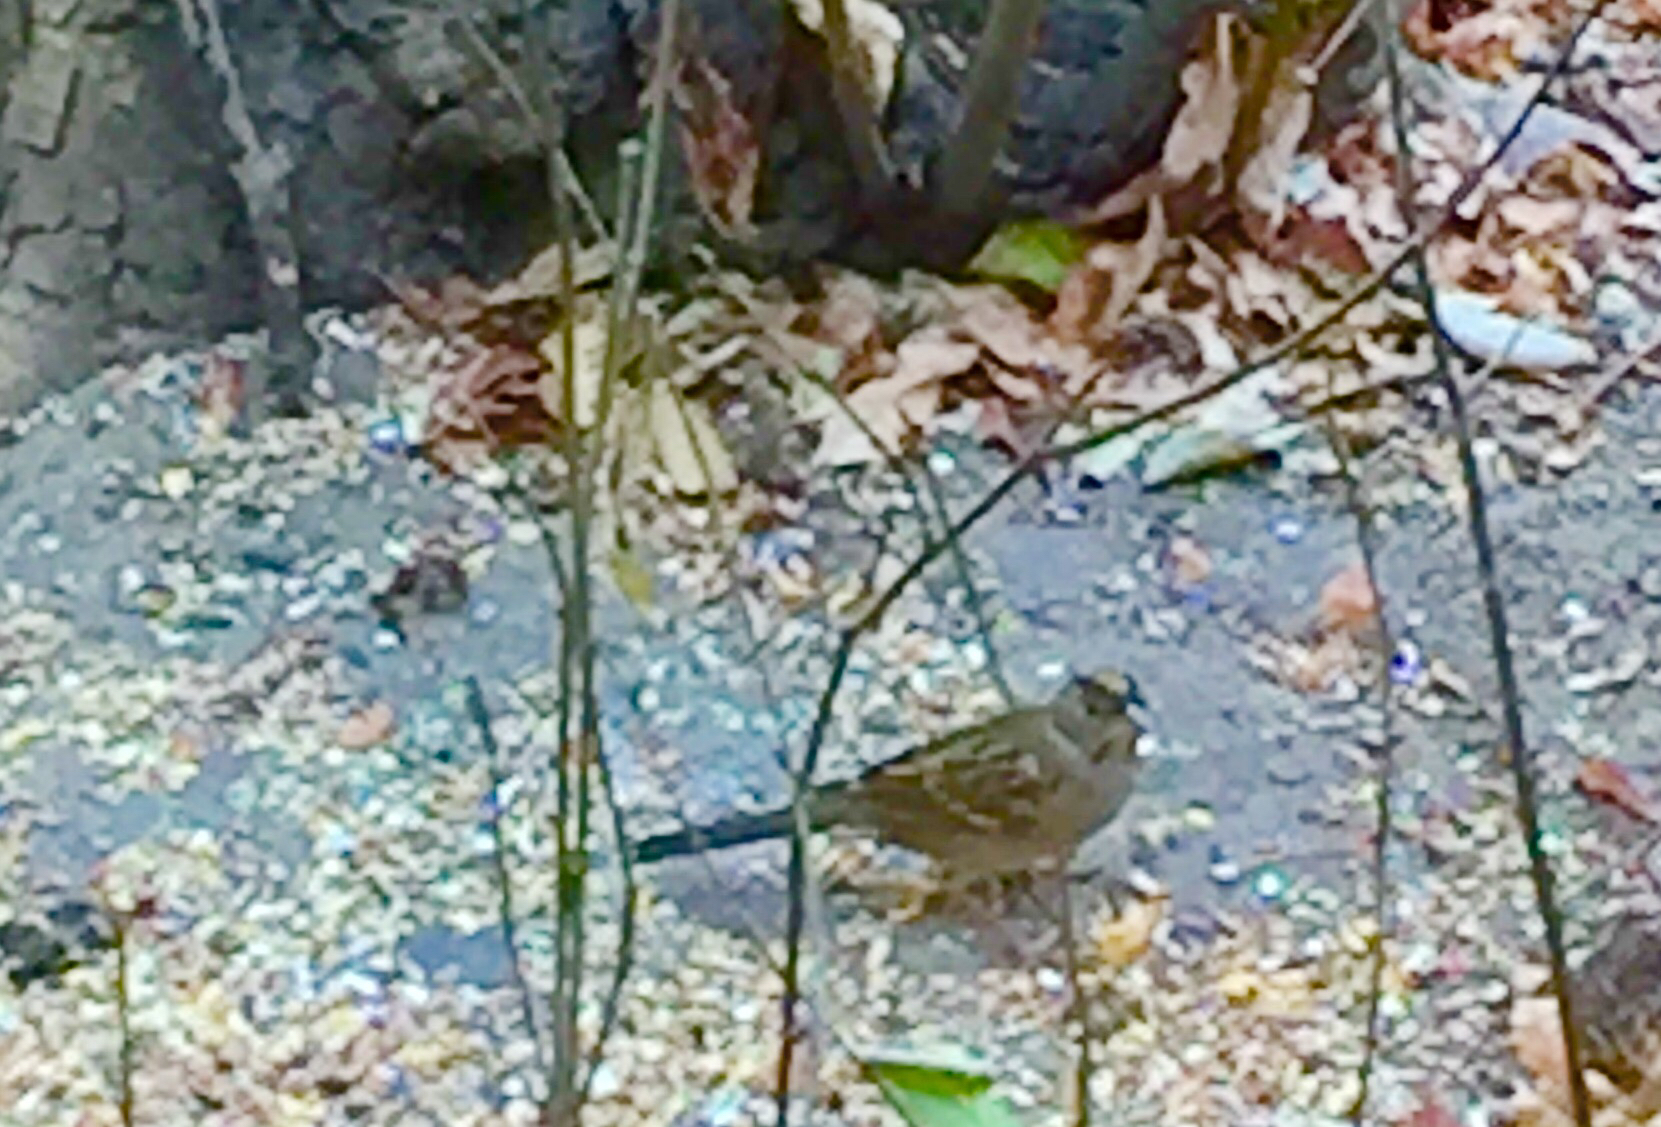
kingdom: Animalia
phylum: Chordata
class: Aves
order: Passeriformes
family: Passerellidae
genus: Zonotrichia
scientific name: Zonotrichia atricapilla
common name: Golden-crowned sparrow
